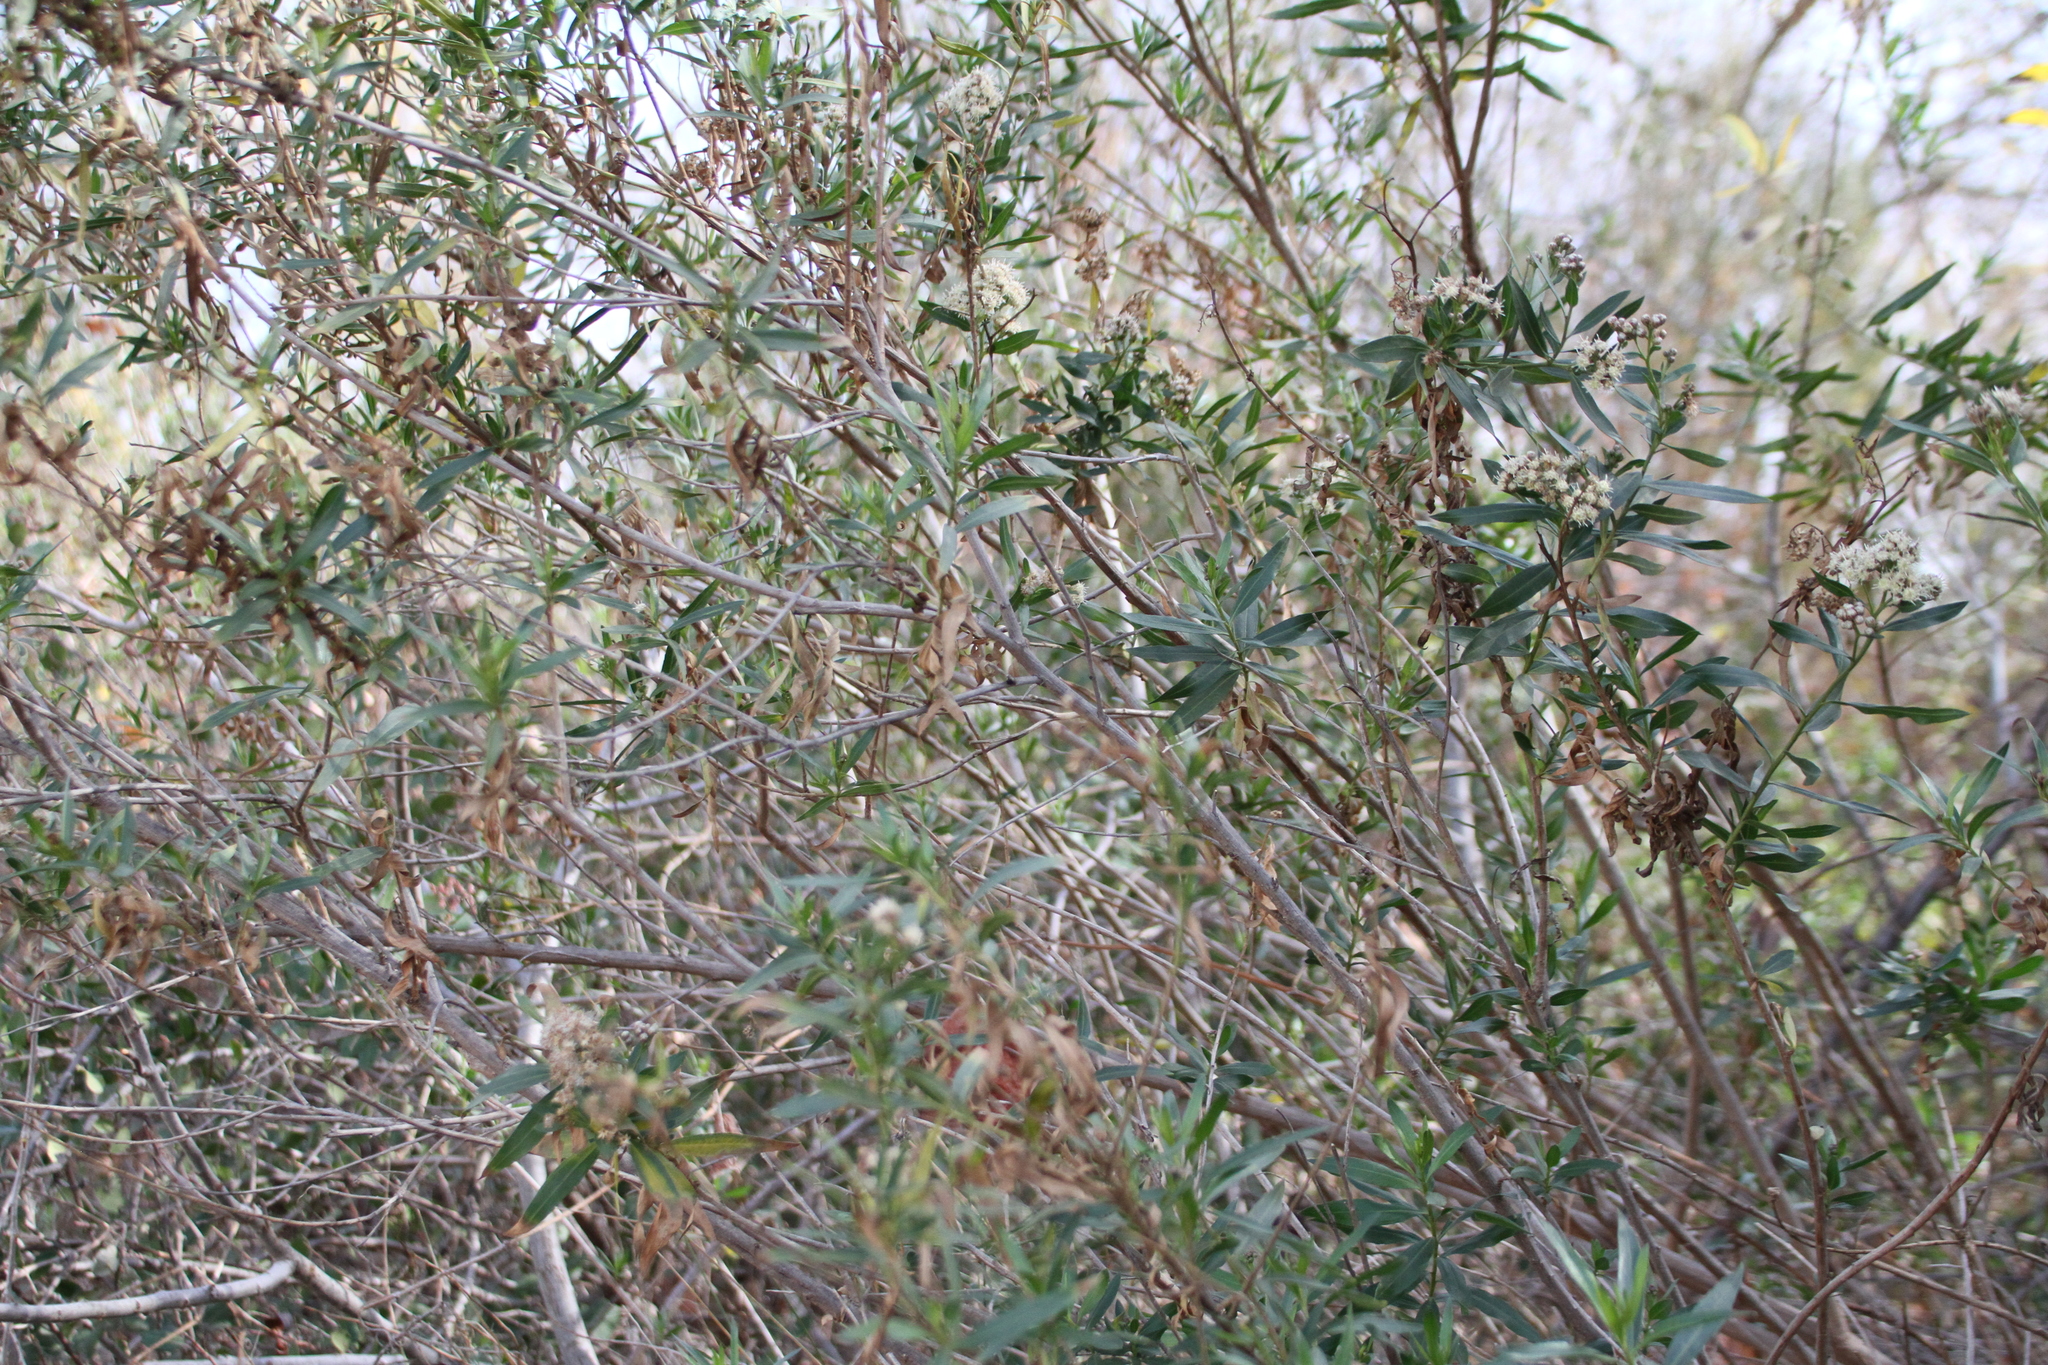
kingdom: Plantae
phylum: Tracheophyta
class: Magnoliopsida
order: Asterales
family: Asteraceae
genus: Baccharis
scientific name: Baccharis salicifolia
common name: Sticky baccharis
